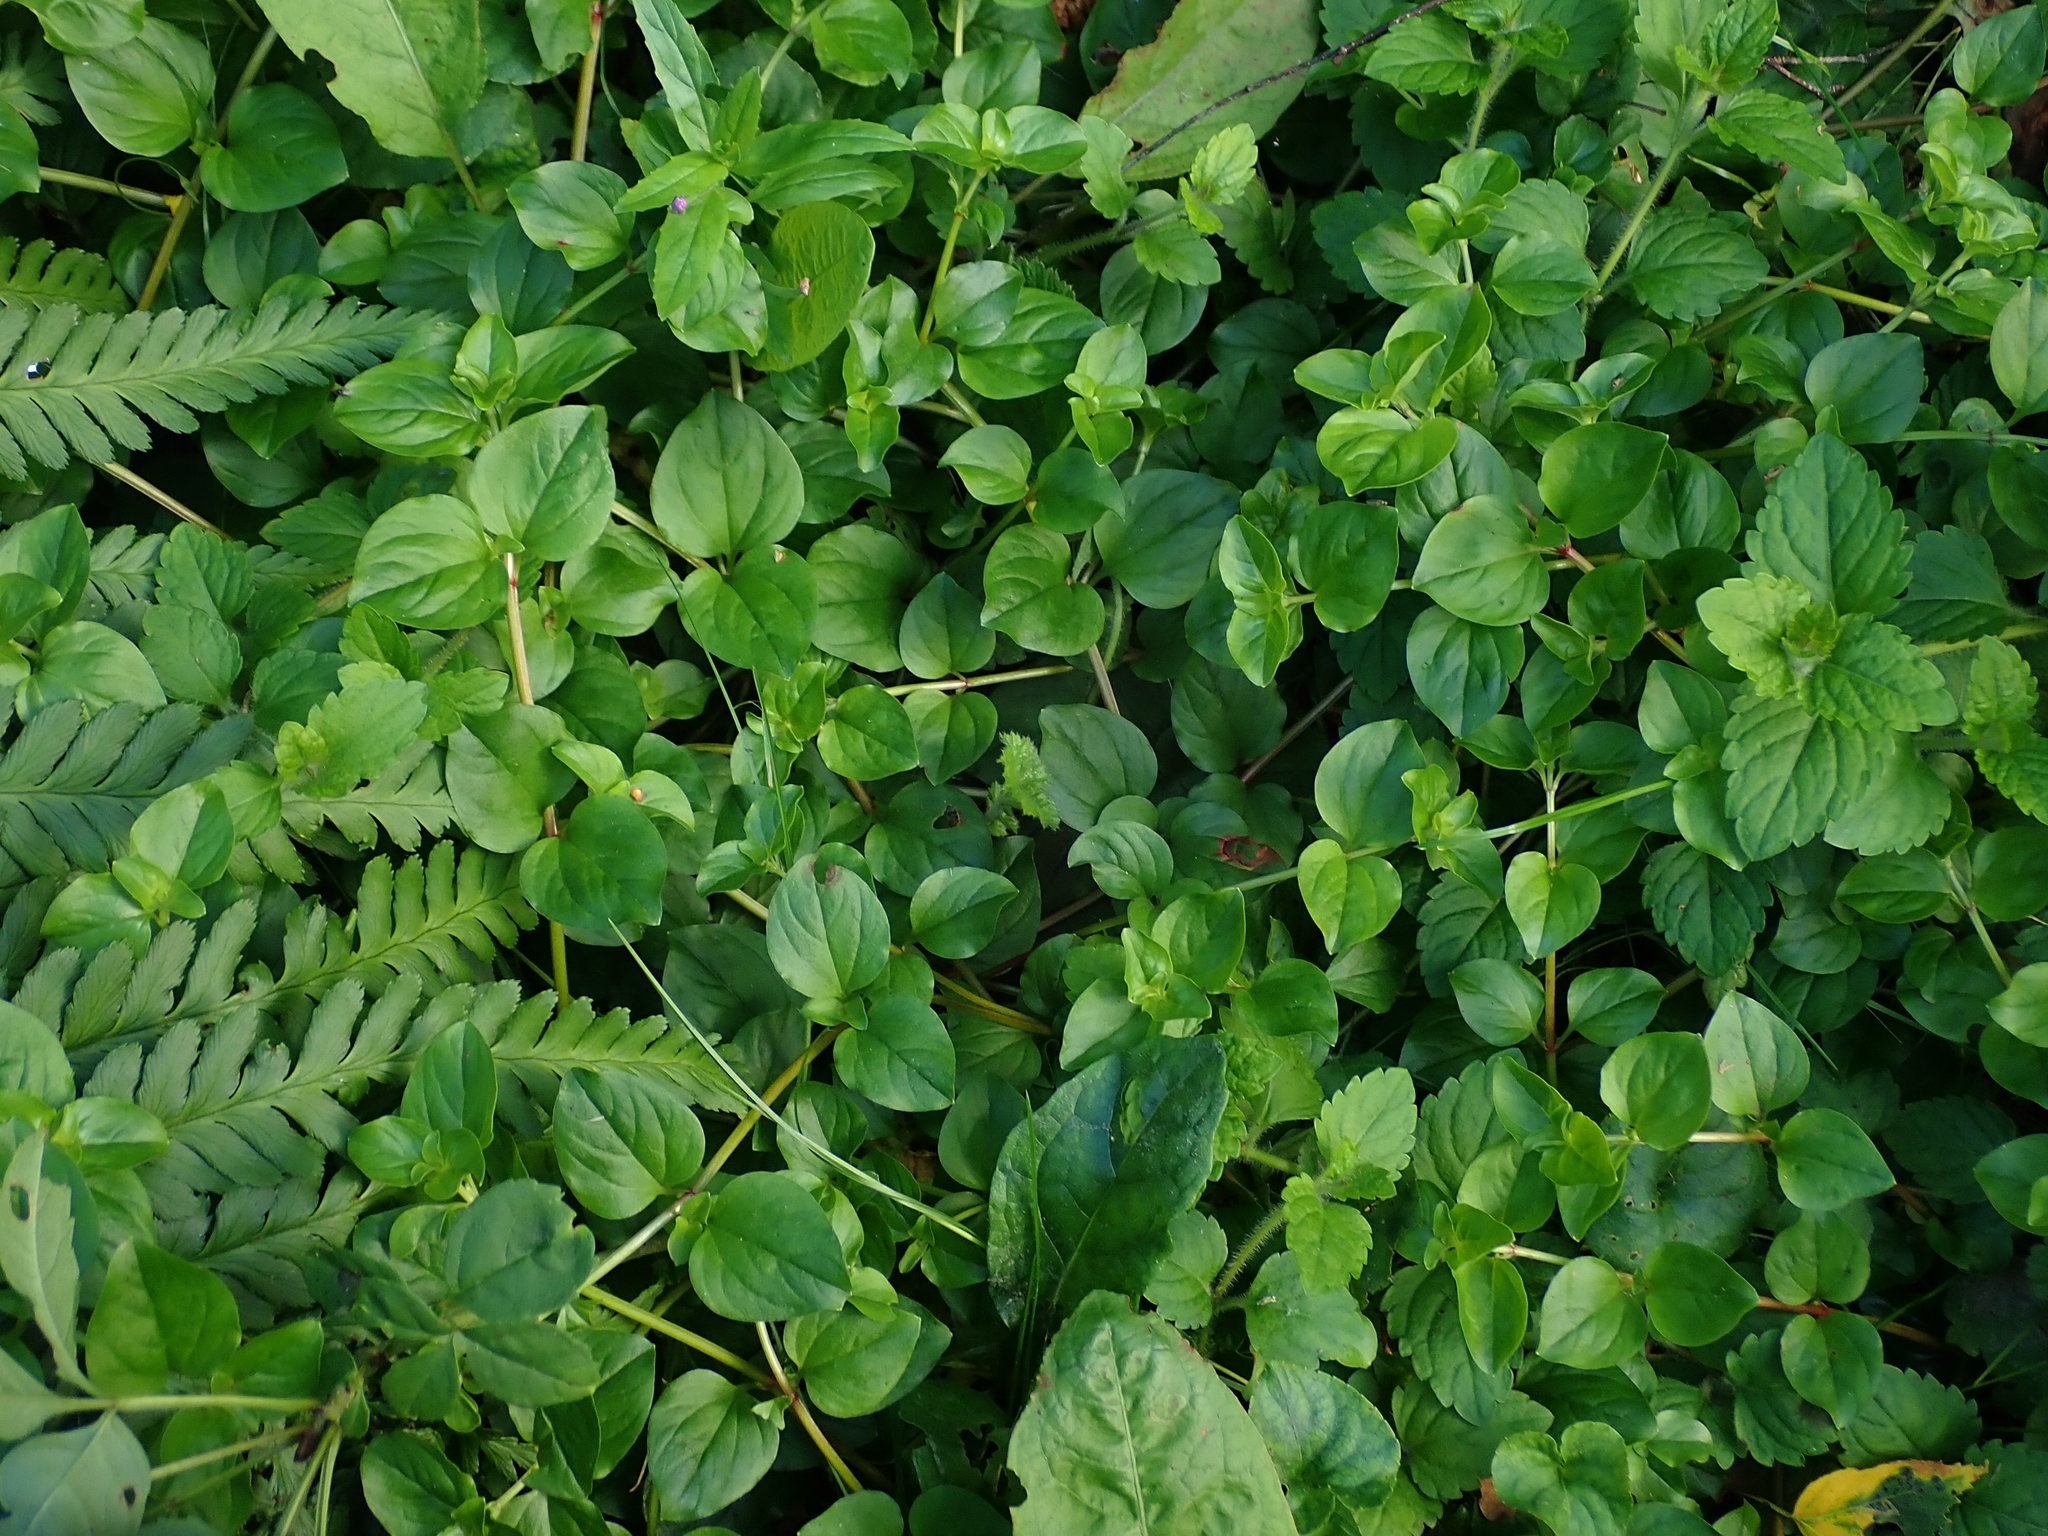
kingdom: Plantae
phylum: Tracheophyta
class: Magnoliopsida
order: Ericales
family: Primulaceae
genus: Lysimachia
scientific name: Lysimachia nemorum
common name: Yellow pimpernel
